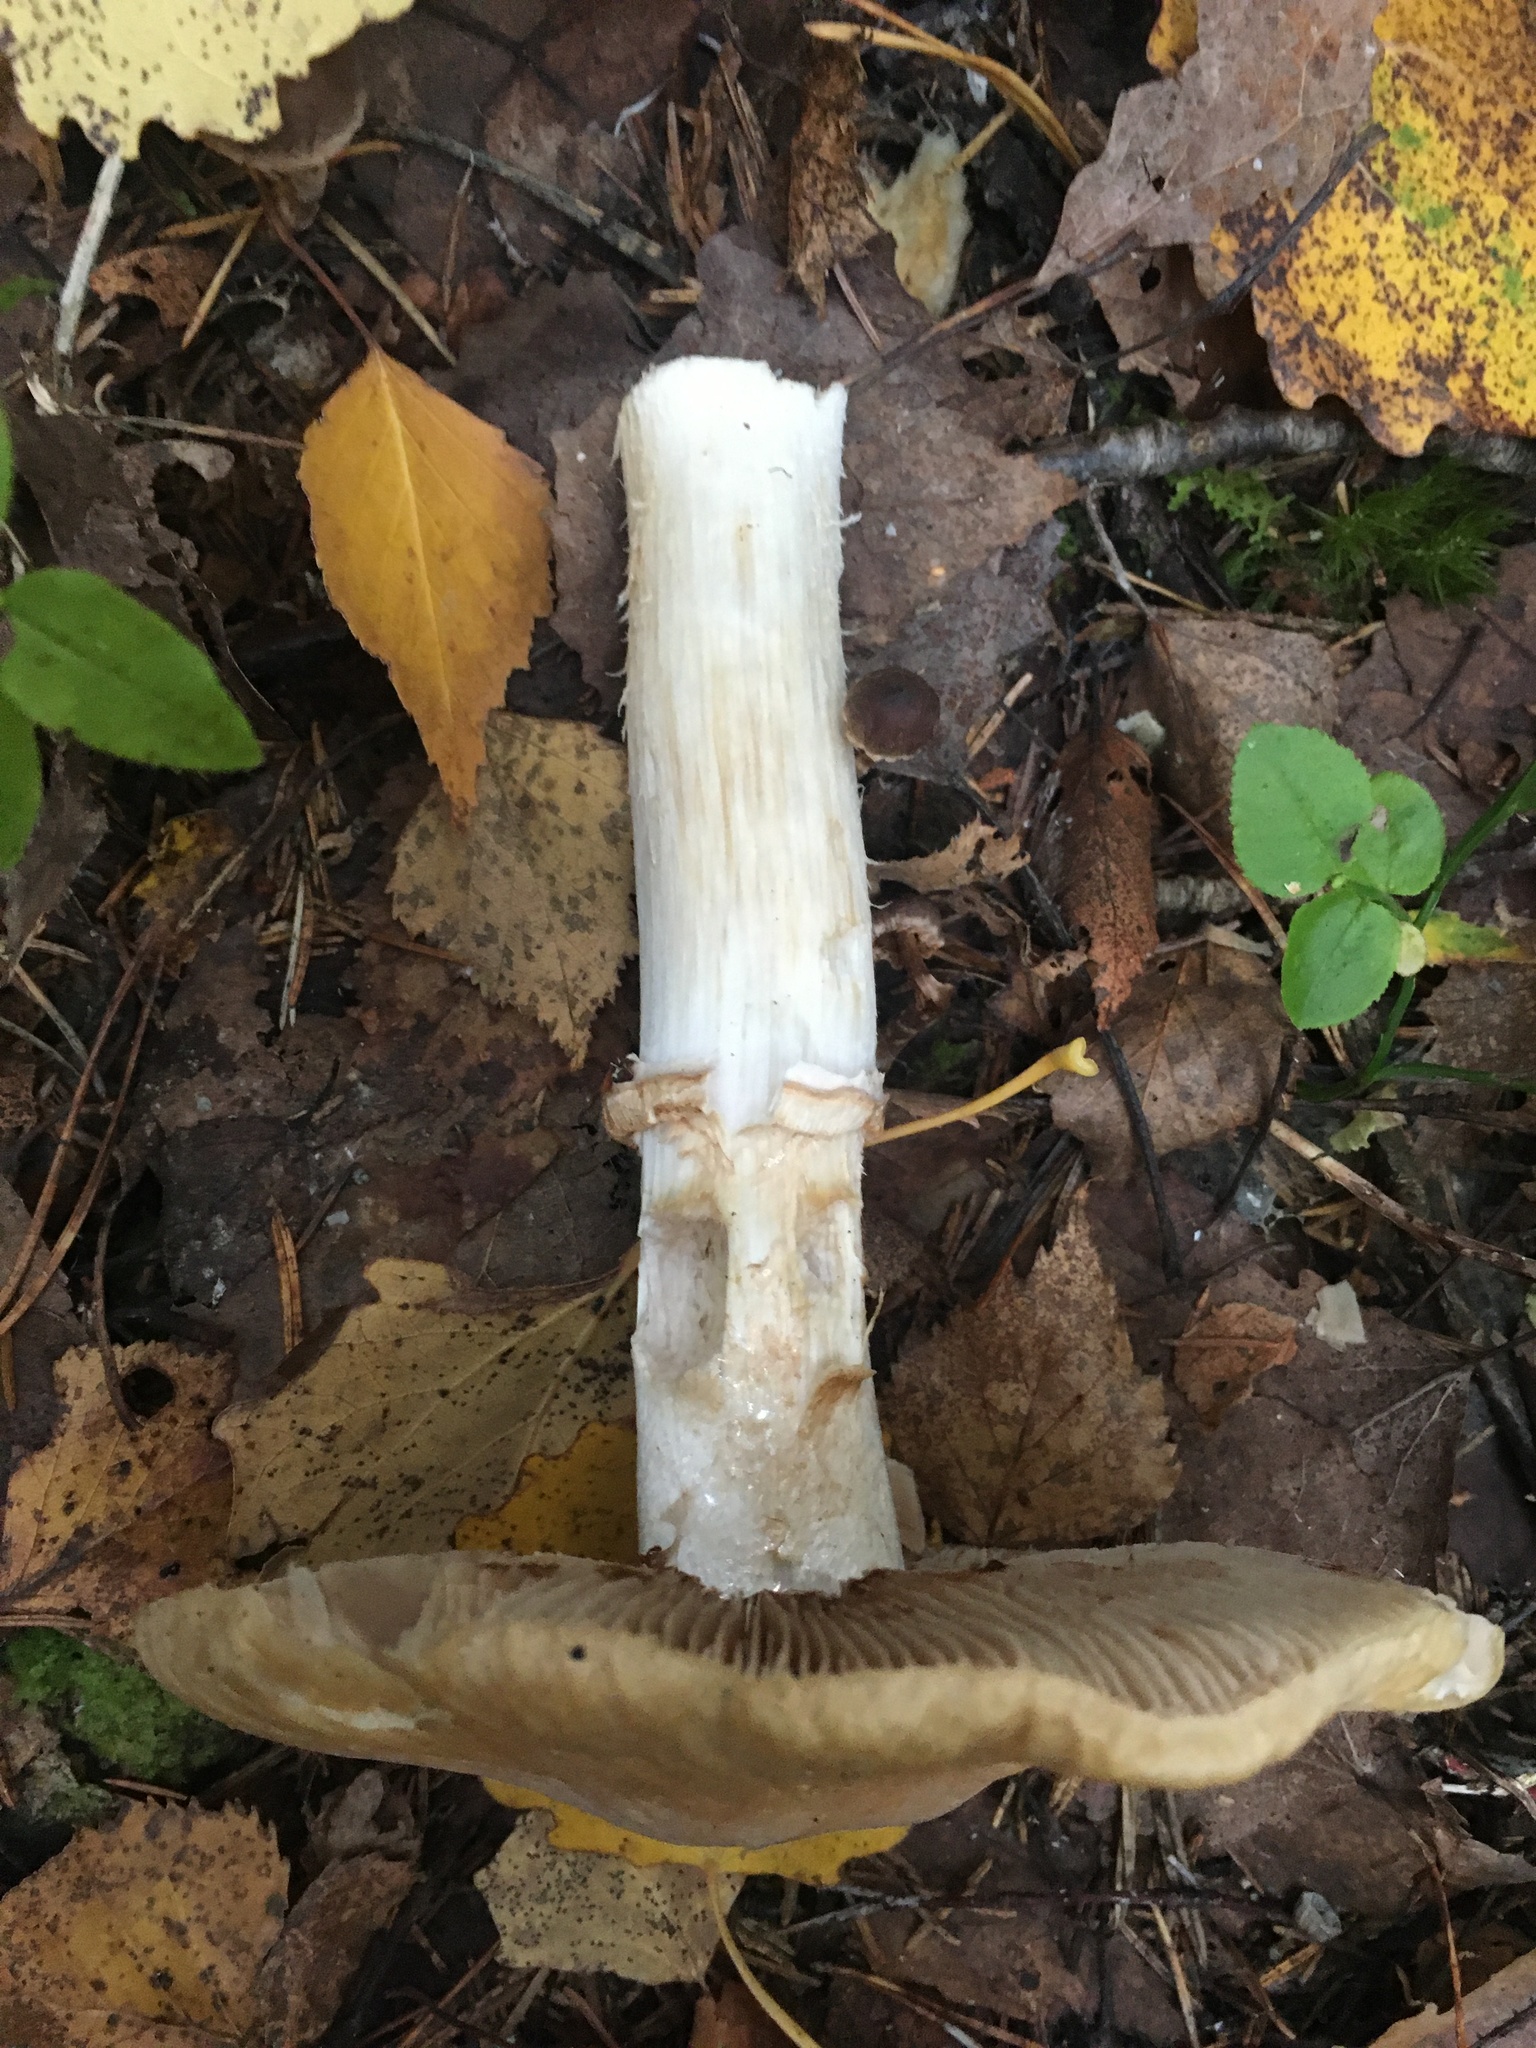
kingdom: Fungi
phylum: Basidiomycota
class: Agaricomycetes
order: Agaricales
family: Cortinariaceae
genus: Cortinarius
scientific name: Cortinarius caperatus
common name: The gypsy
